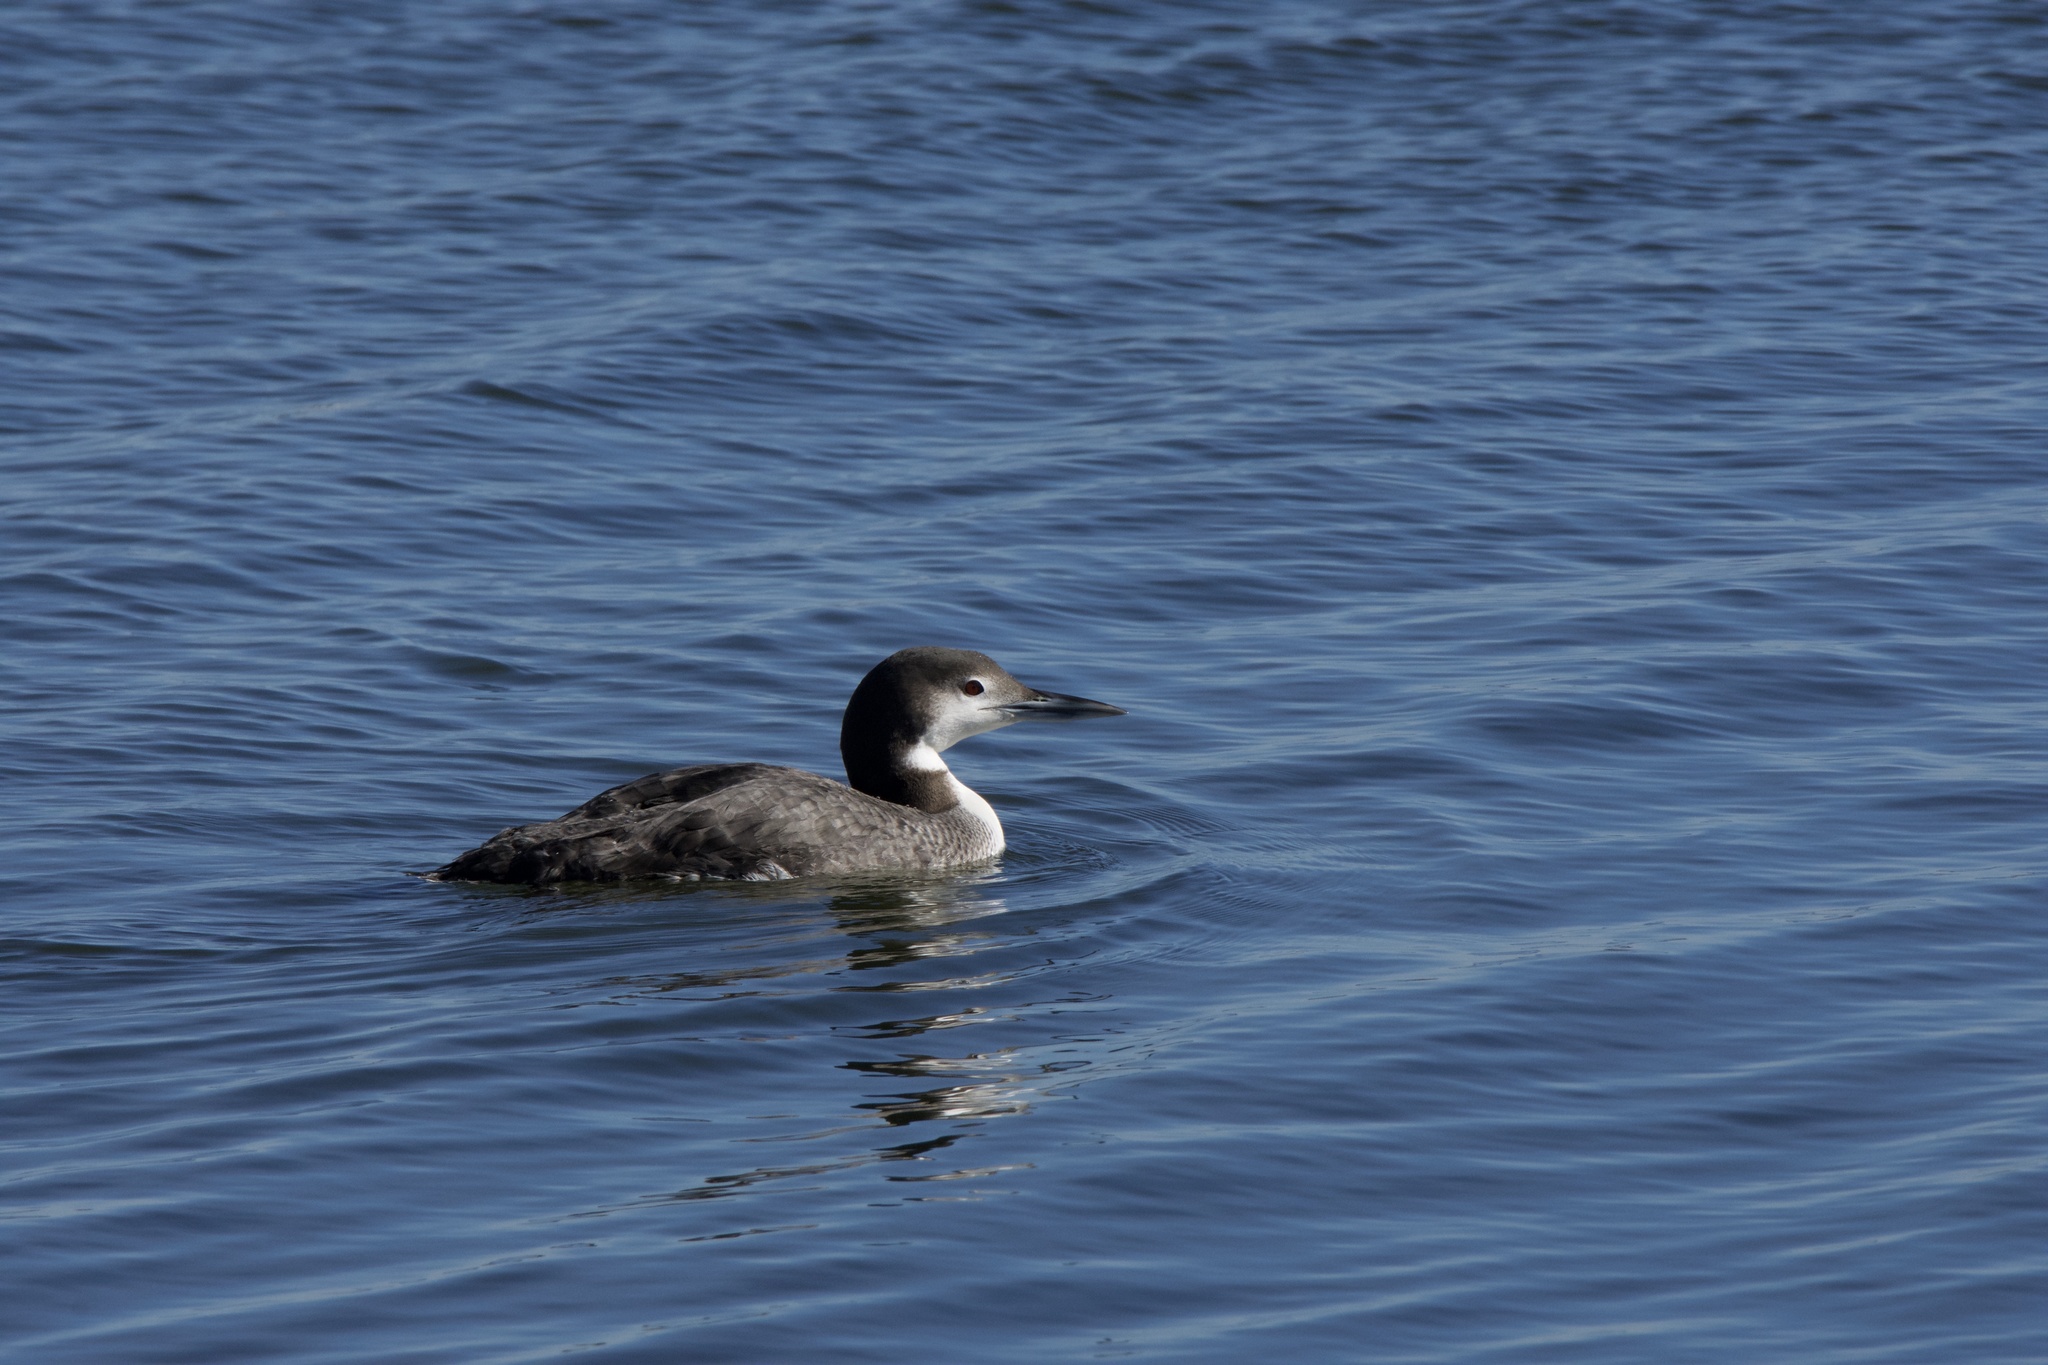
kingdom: Animalia
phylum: Chordata
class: Aves
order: Gaviiformes
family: Gaviidae
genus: Gavia
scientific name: Gavia immer
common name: Common loon
